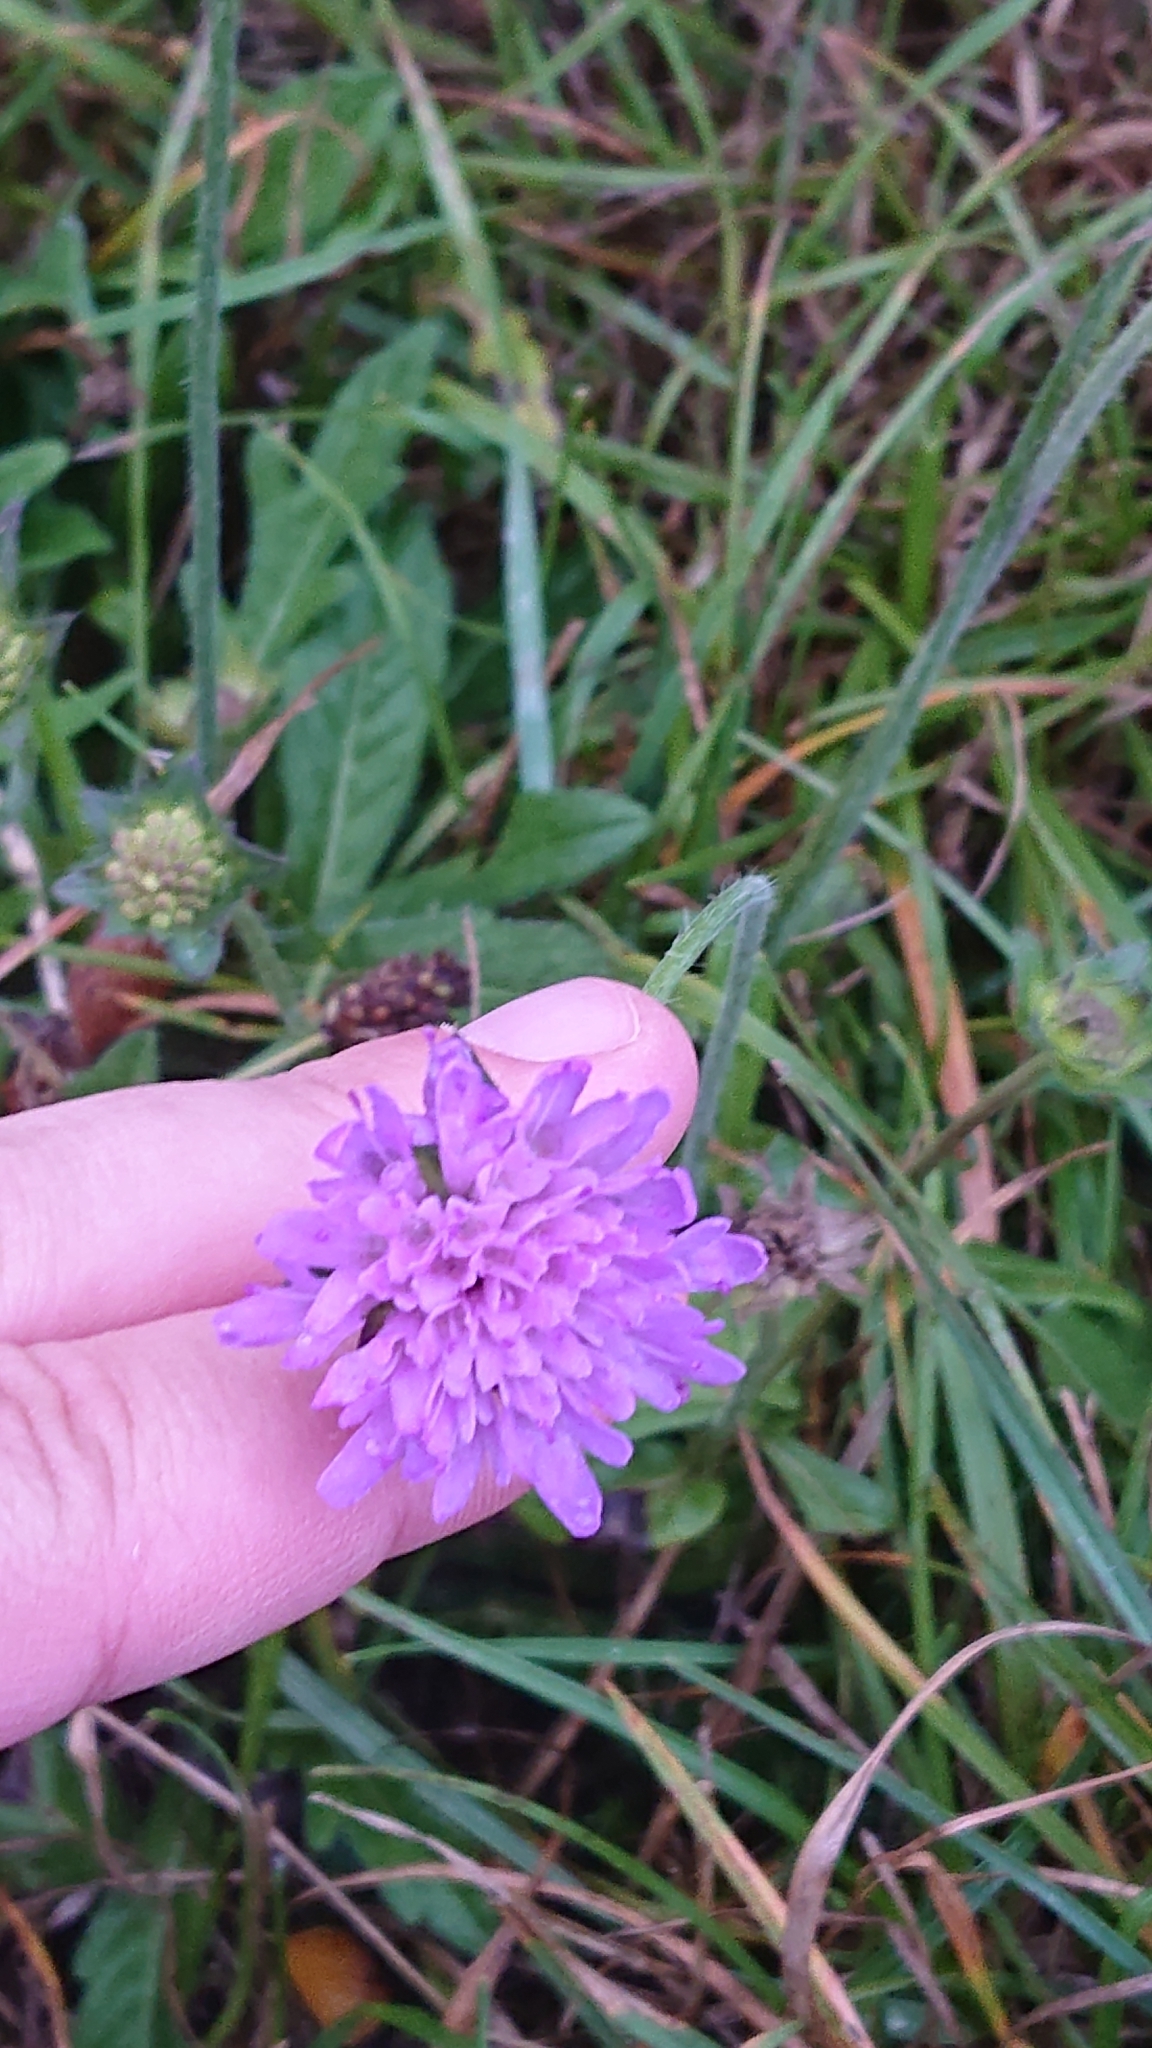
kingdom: Plantae
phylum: Tracheophyta
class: Magnoliopsida
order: Dipsacales
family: Caprifoliaceae
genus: Knautia
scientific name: Knautia arvensis
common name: Field scabiosa
